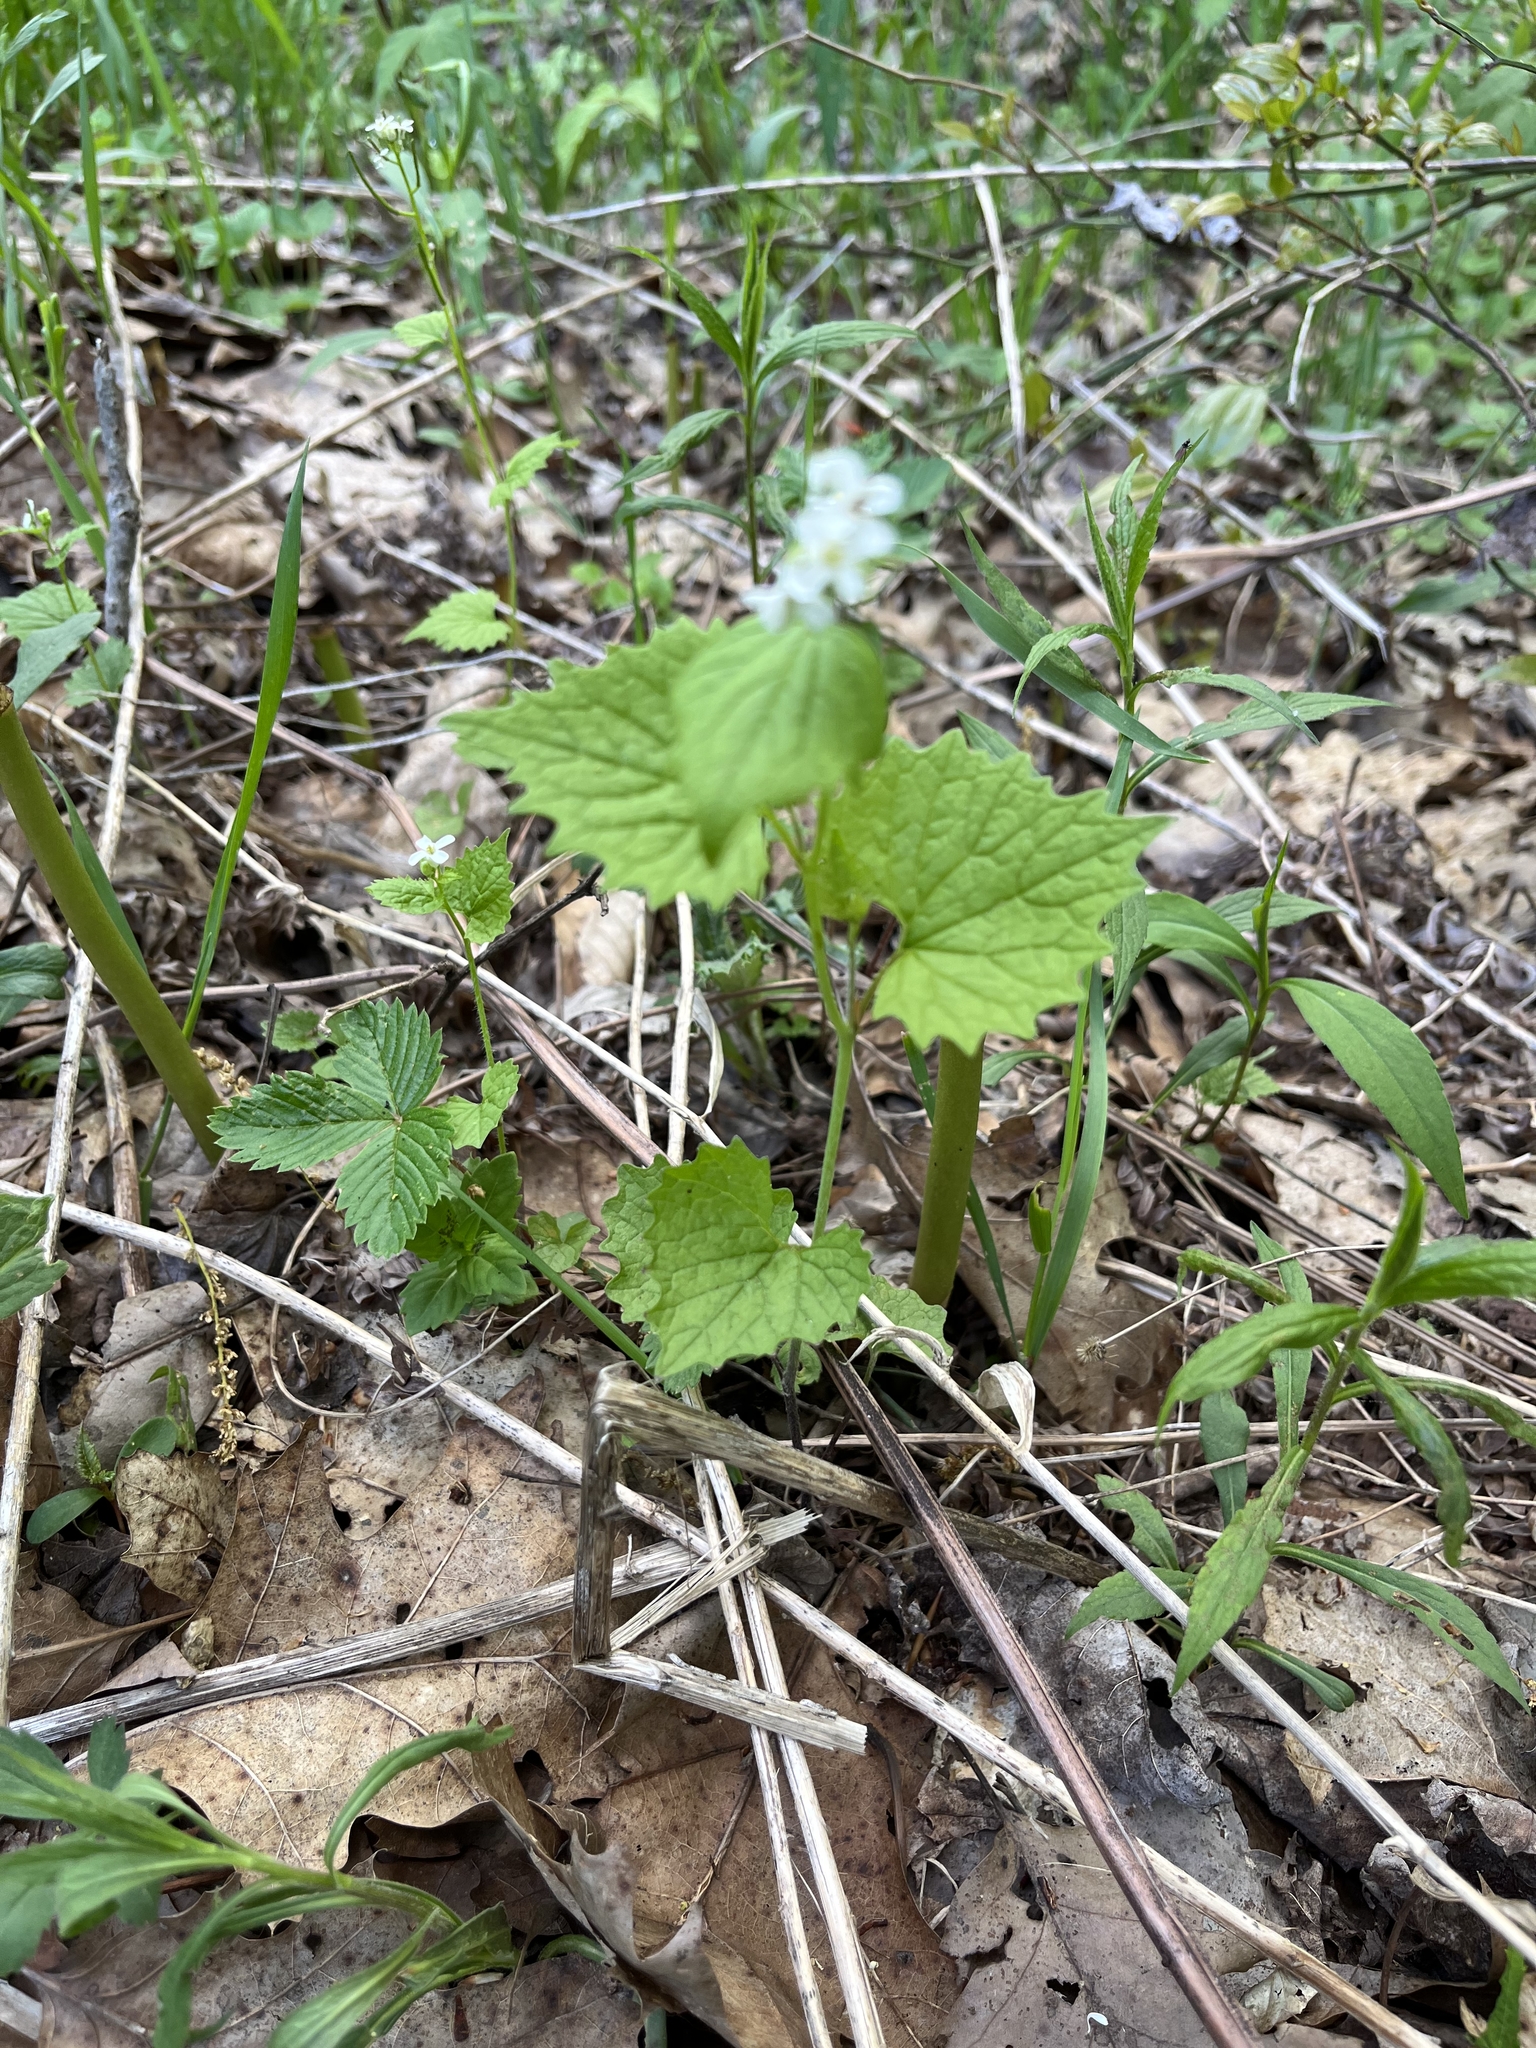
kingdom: Plantae
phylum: Tracheophyta
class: Magnoliopsida
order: Brassicales
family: Brassicaceae
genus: Alliaria
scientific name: Alliaria petiolata
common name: Garlic mustard
